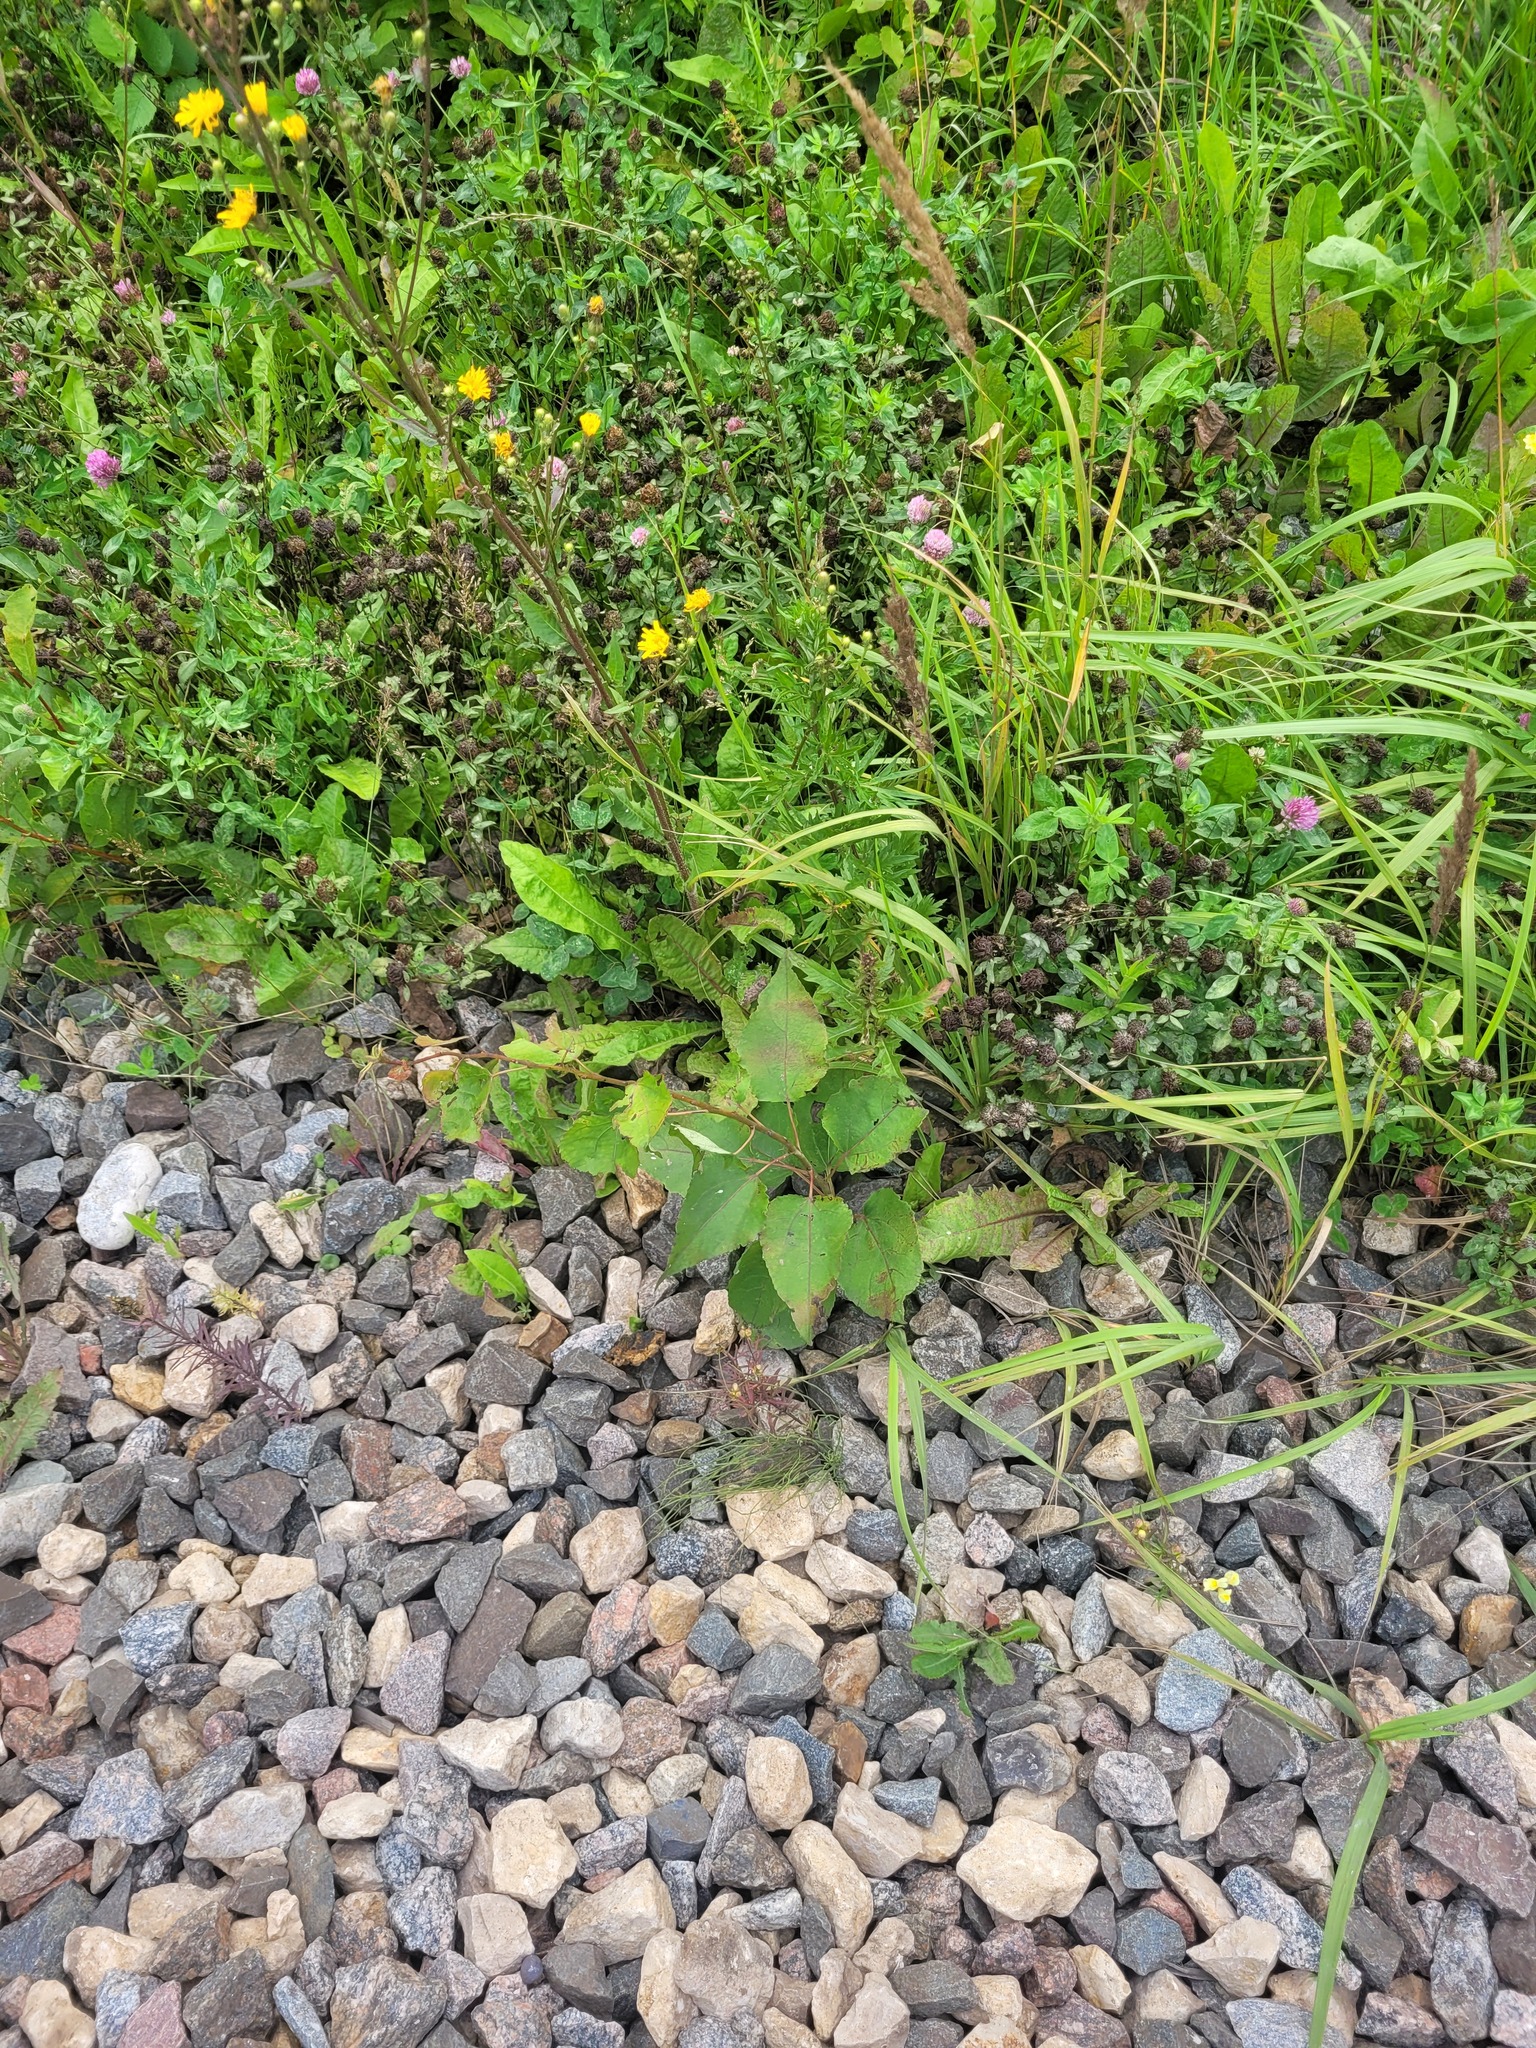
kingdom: Plantae
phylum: Tracheophyta
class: Magnoliopsida
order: Malpighiales
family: Salicaceae
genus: Populus
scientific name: Populus tremula
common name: European aspen
